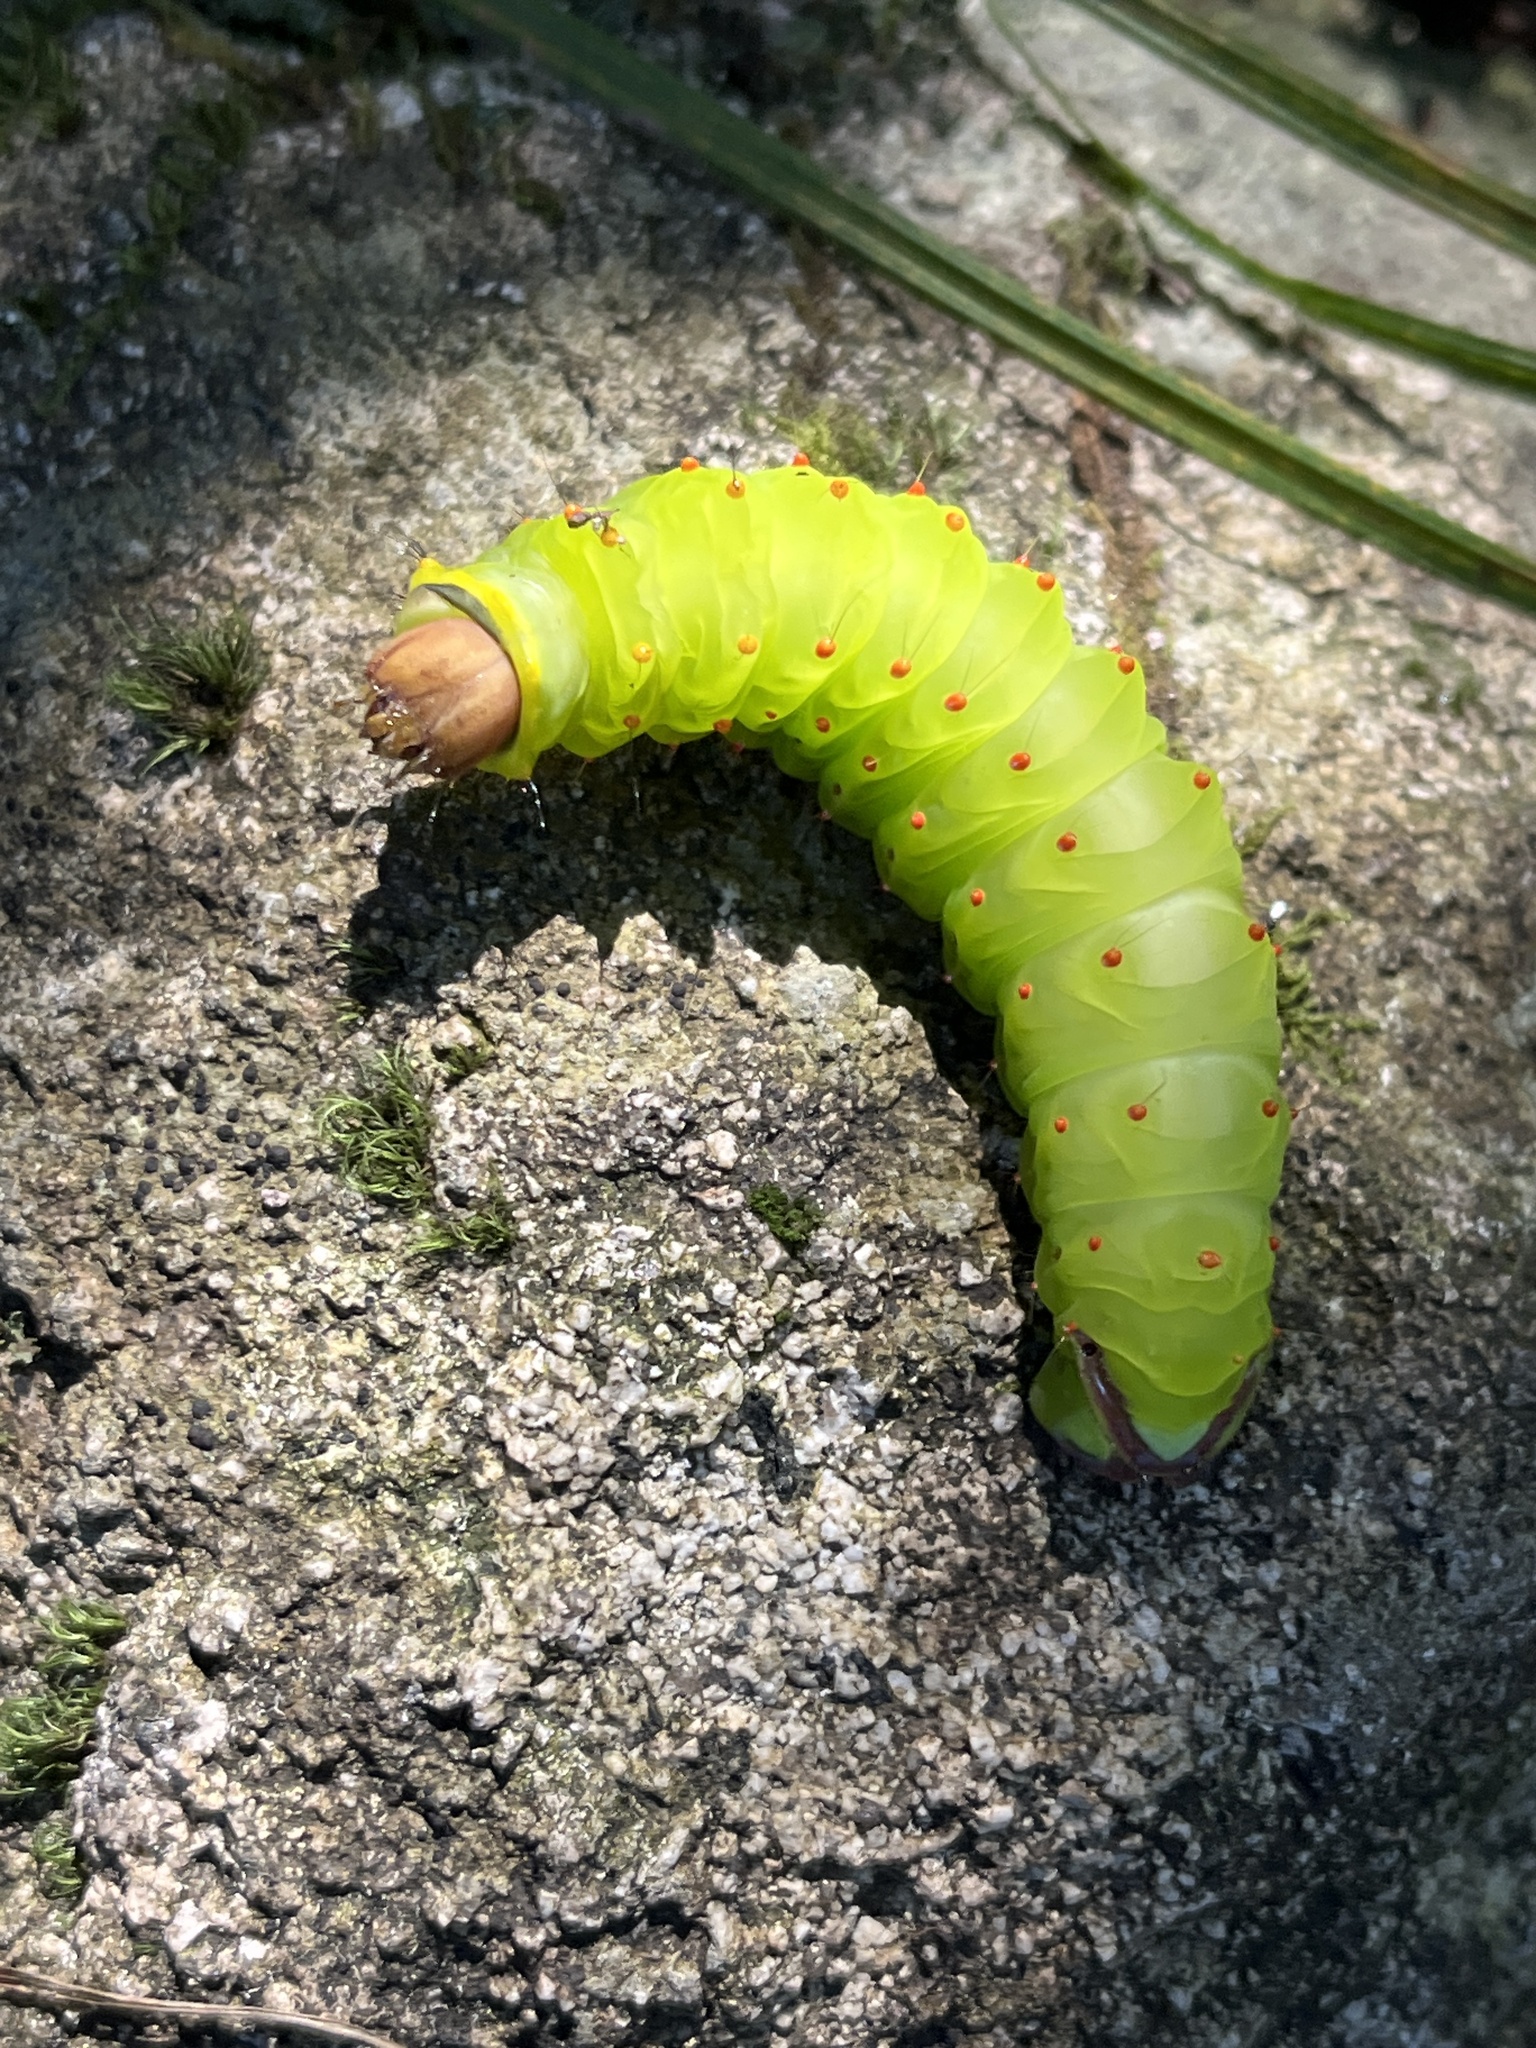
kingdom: Animalia
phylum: Arthropoda
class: Insecta
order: Lepidoptera
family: Saturniidae
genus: Antheraea
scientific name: Antheraea polyphemus
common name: Polyphemus moth
